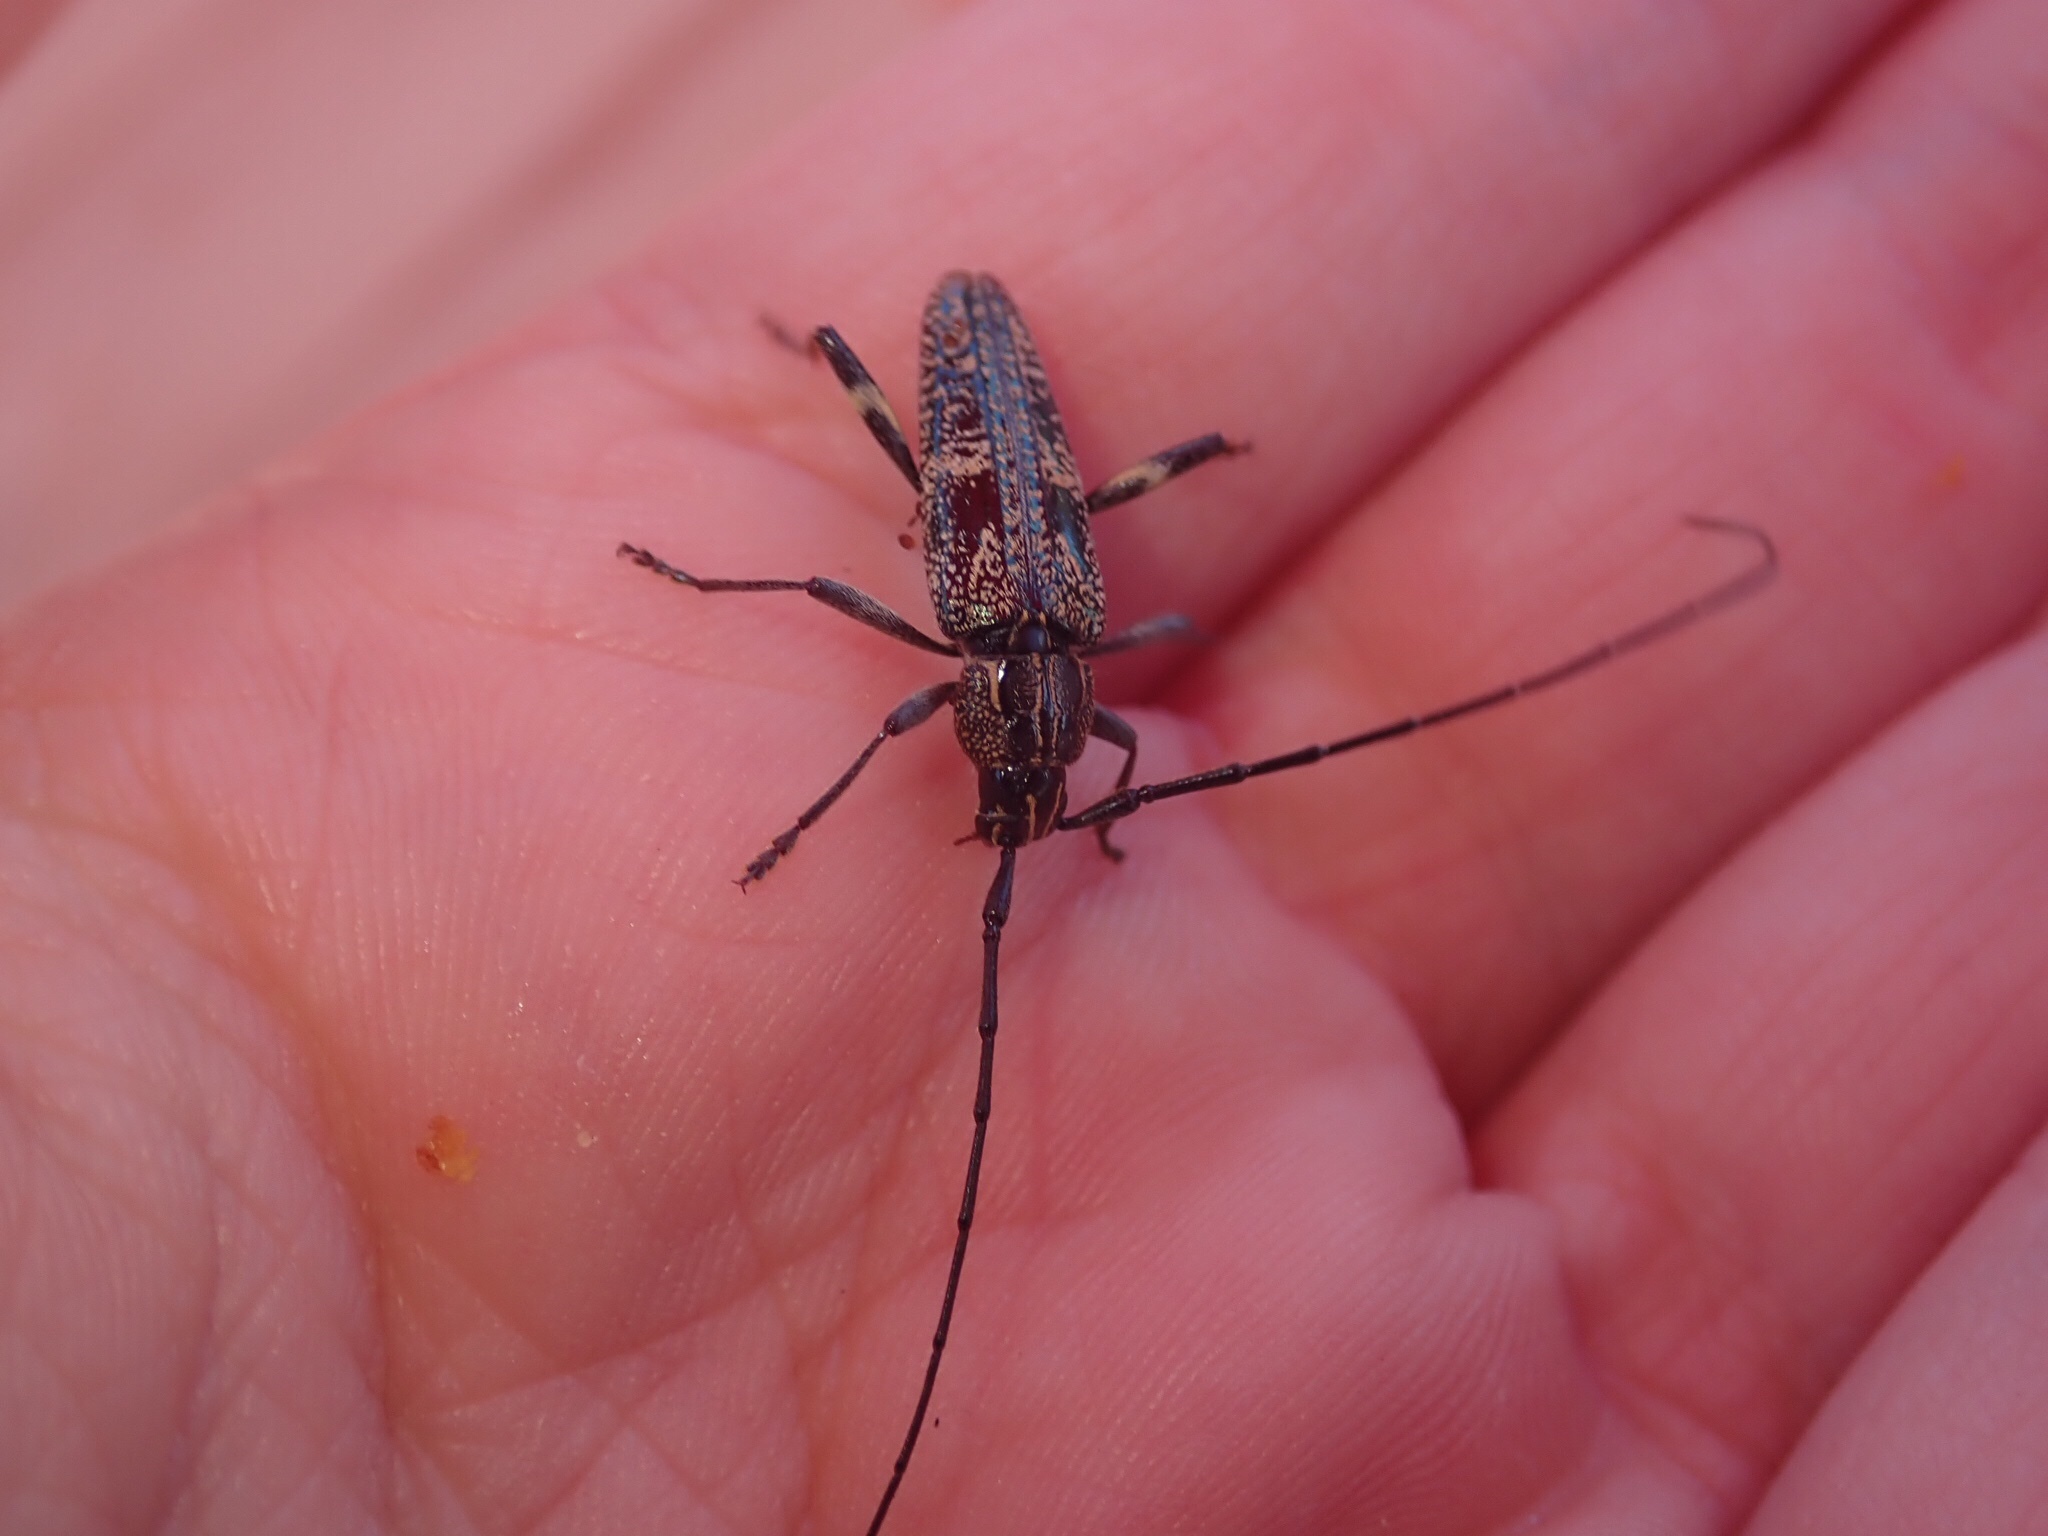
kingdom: Animalia
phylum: Arthropoda
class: Insecta
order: Coleoptera
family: Cerambycidae
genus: Coptomma
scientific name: Coptomma variegatum
